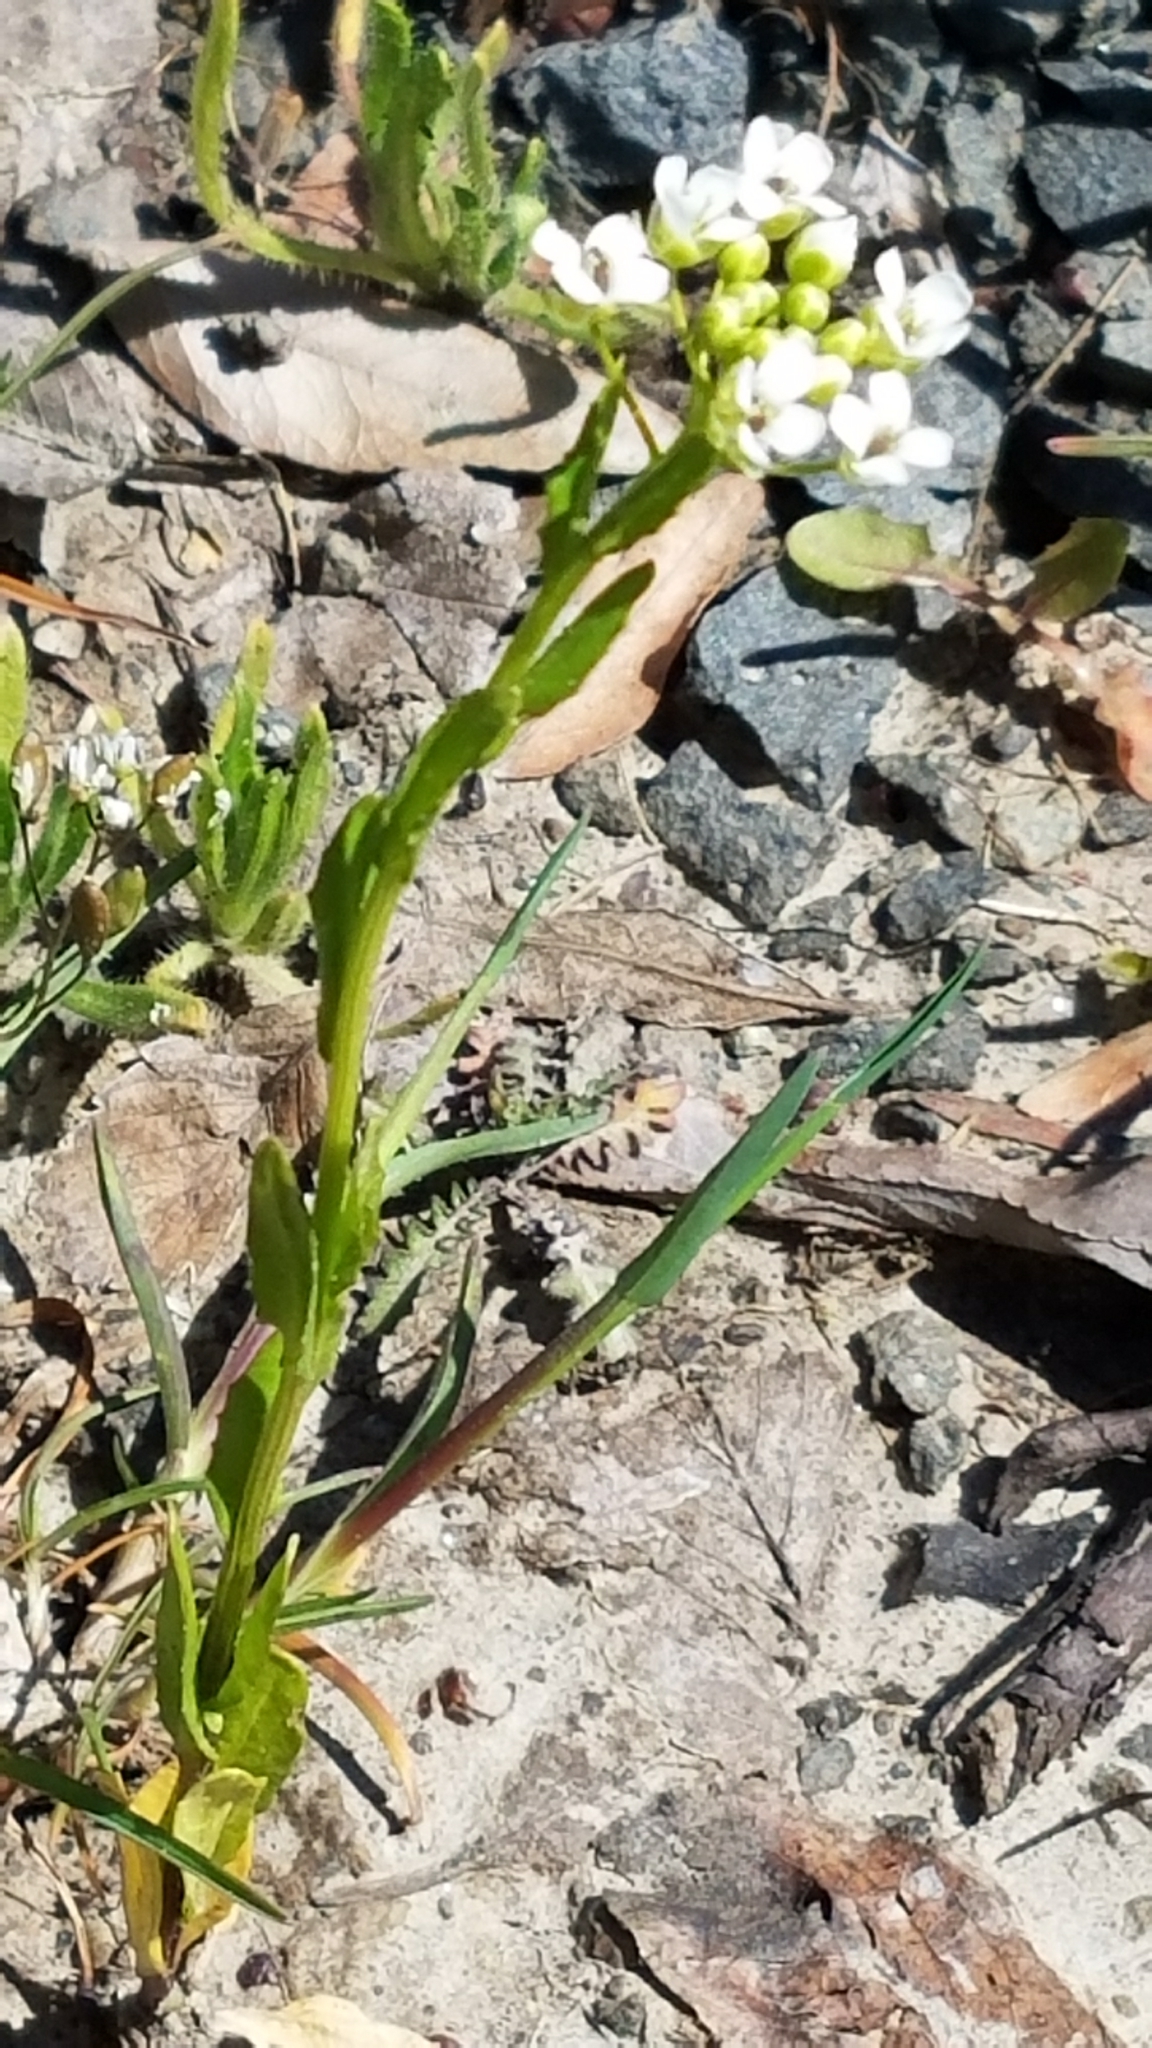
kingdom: Plantae
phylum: Tracheophyta
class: Magnoliopsida
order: Brassicales
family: Brassicaceae
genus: Thlaspi
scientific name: Thlaspi arvense
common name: Field pennycress
